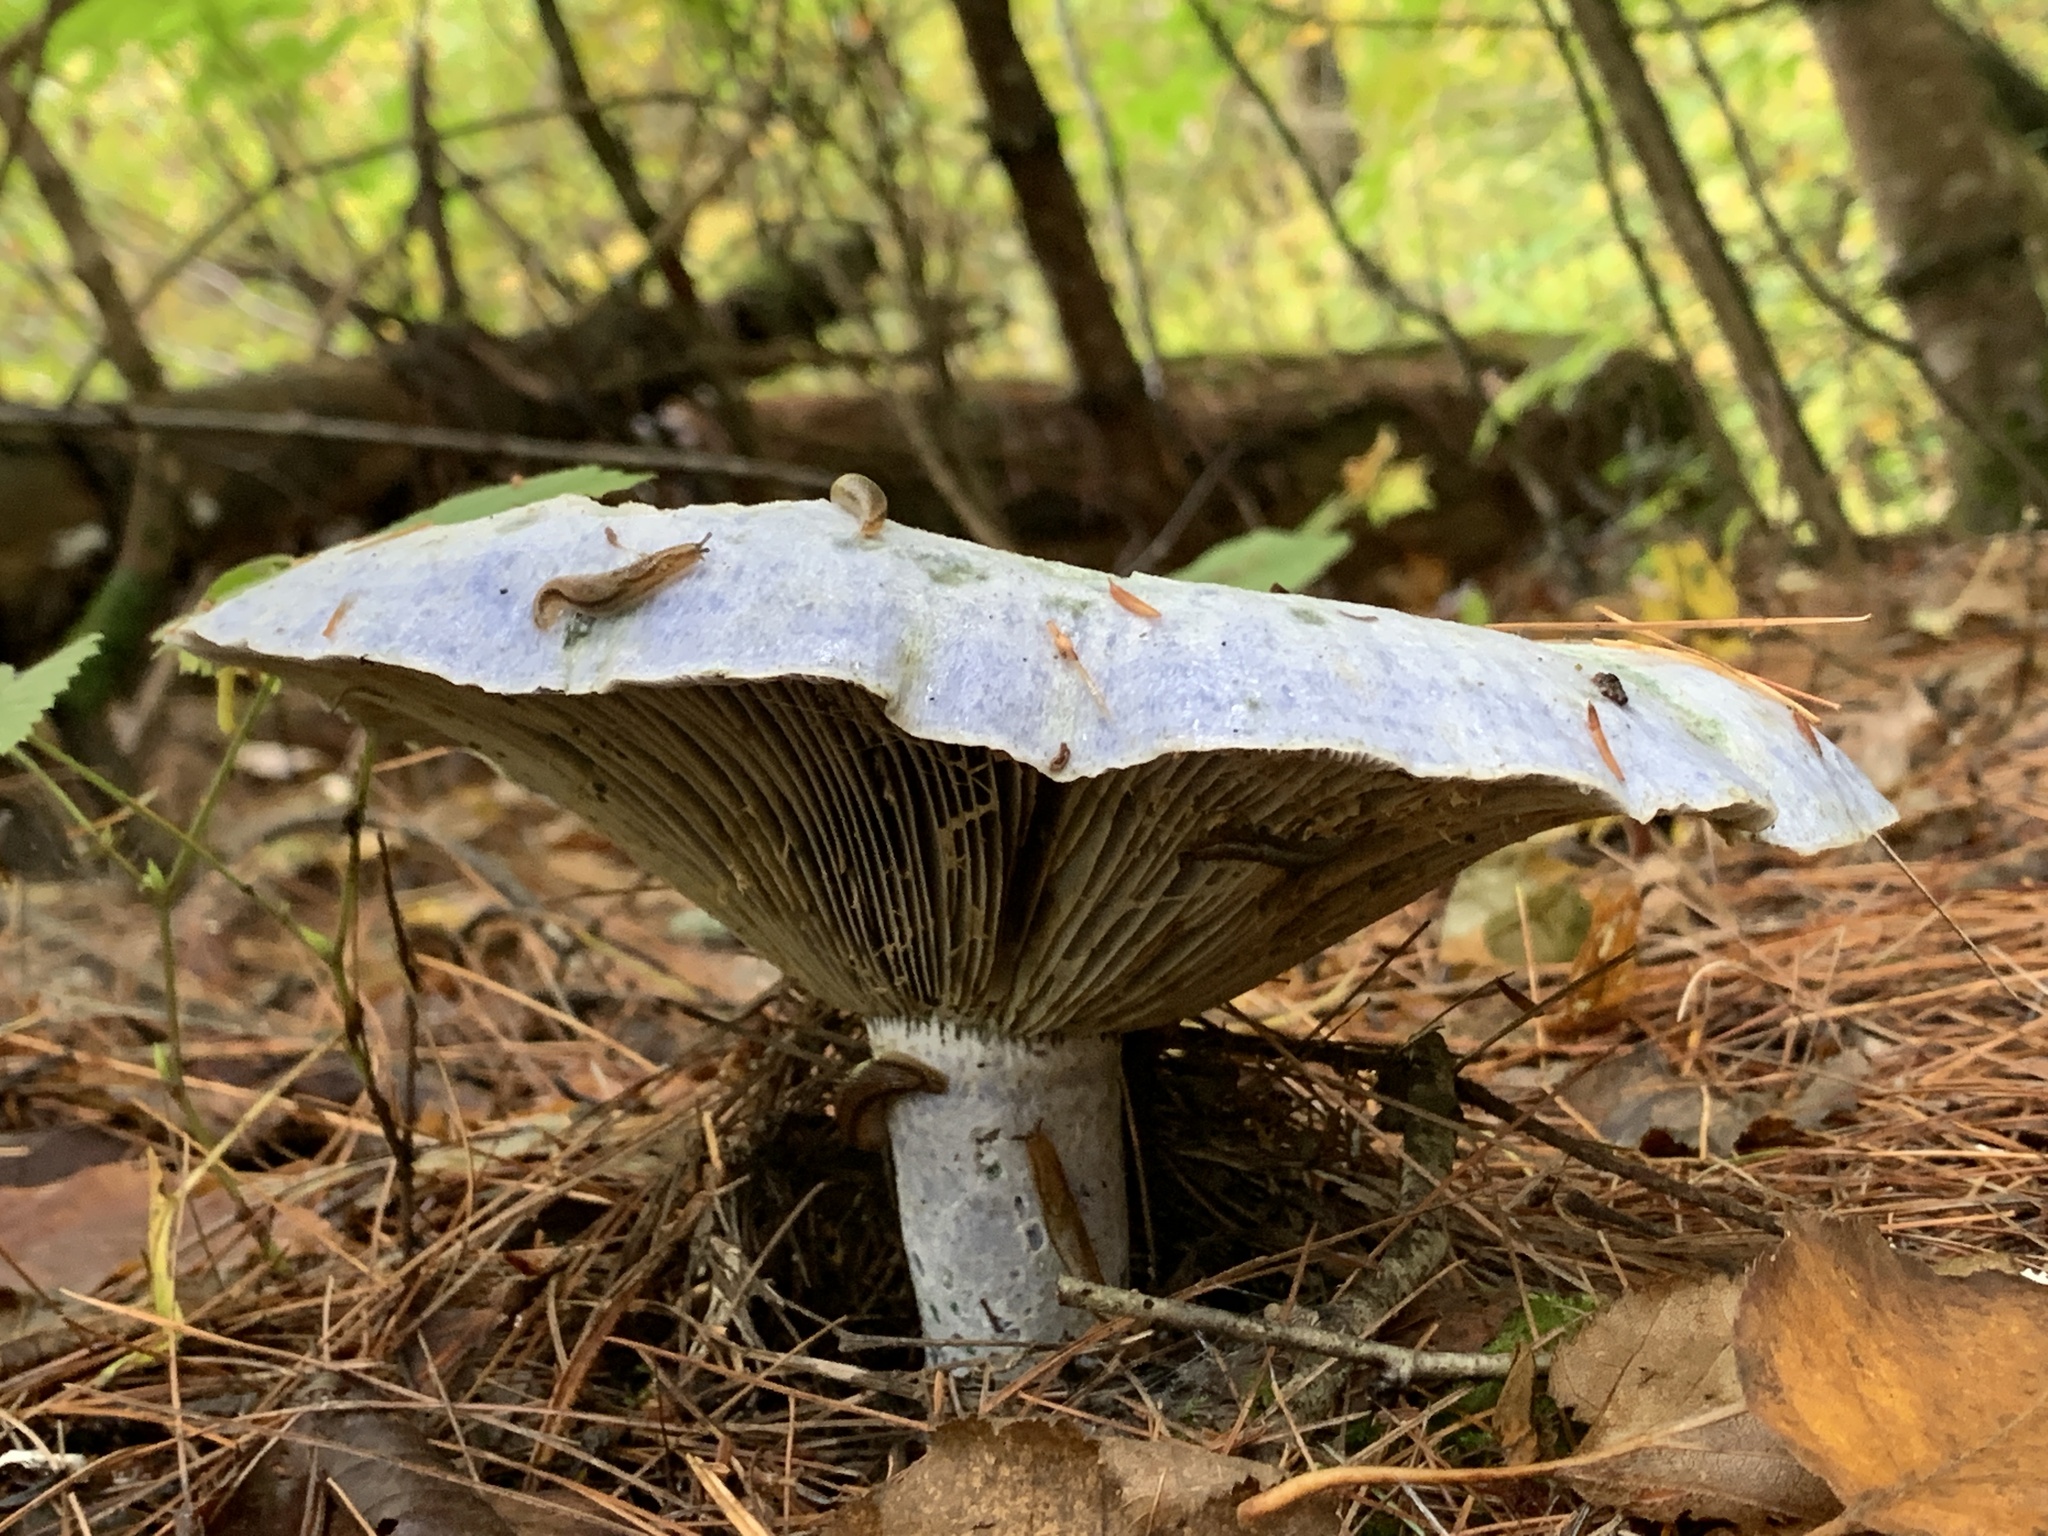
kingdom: Fungi
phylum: Basidiomycota
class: Agaricomycetes
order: Russulales
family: Russulaceae
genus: Lactarius
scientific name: Lactarius indigo
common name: Indigo milk cap
